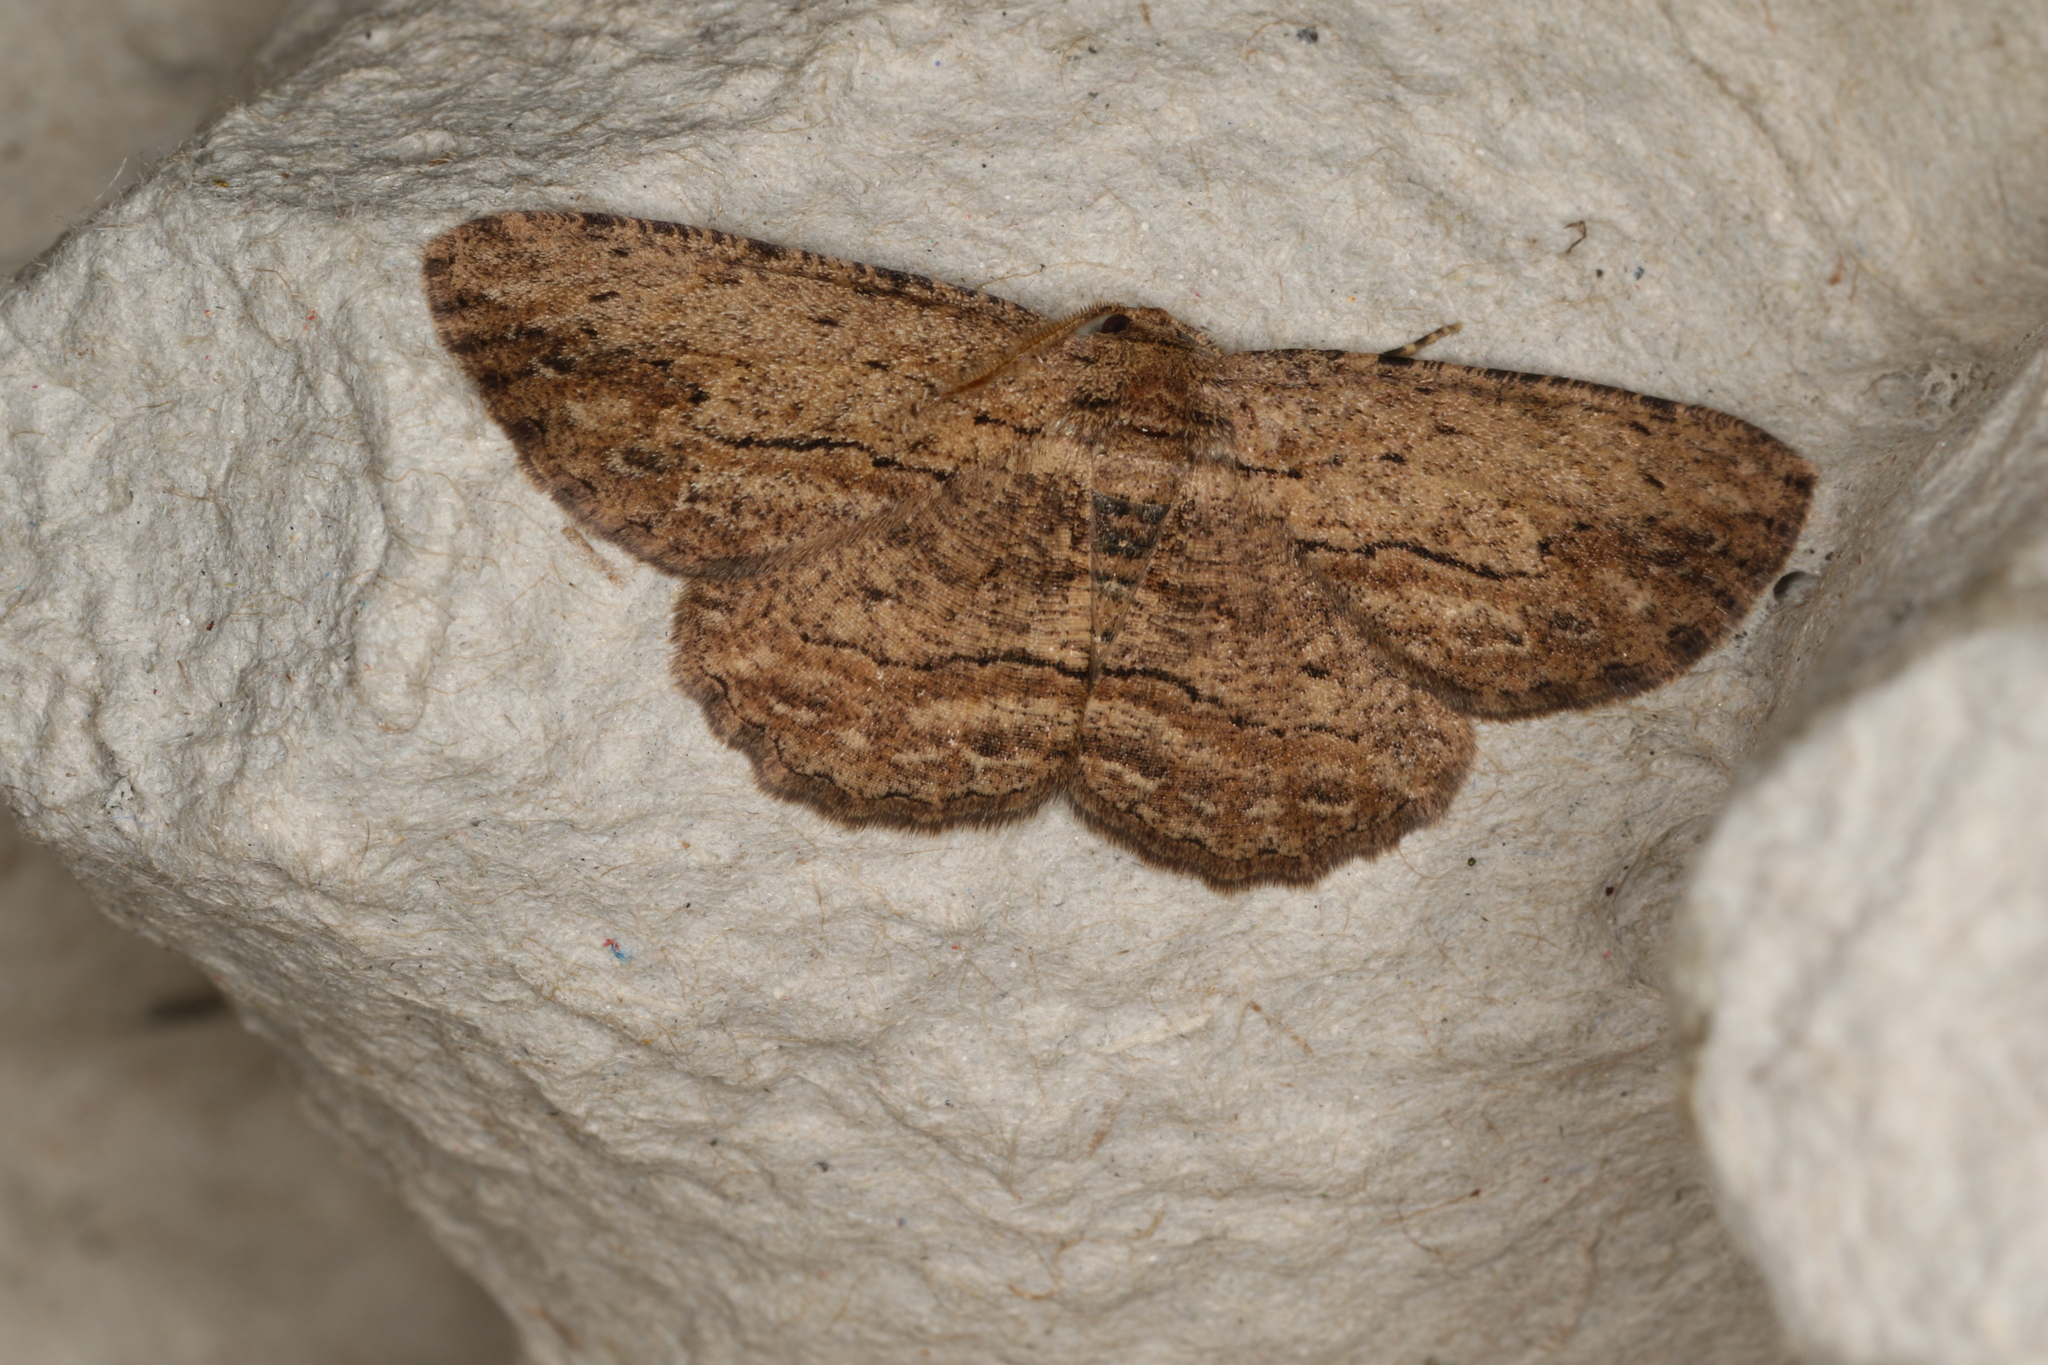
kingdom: Animalia
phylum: Arthropoda
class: Insecta
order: Lepidoptera
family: Geometridae
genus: Ectropis
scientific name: Ectropis excursaria
